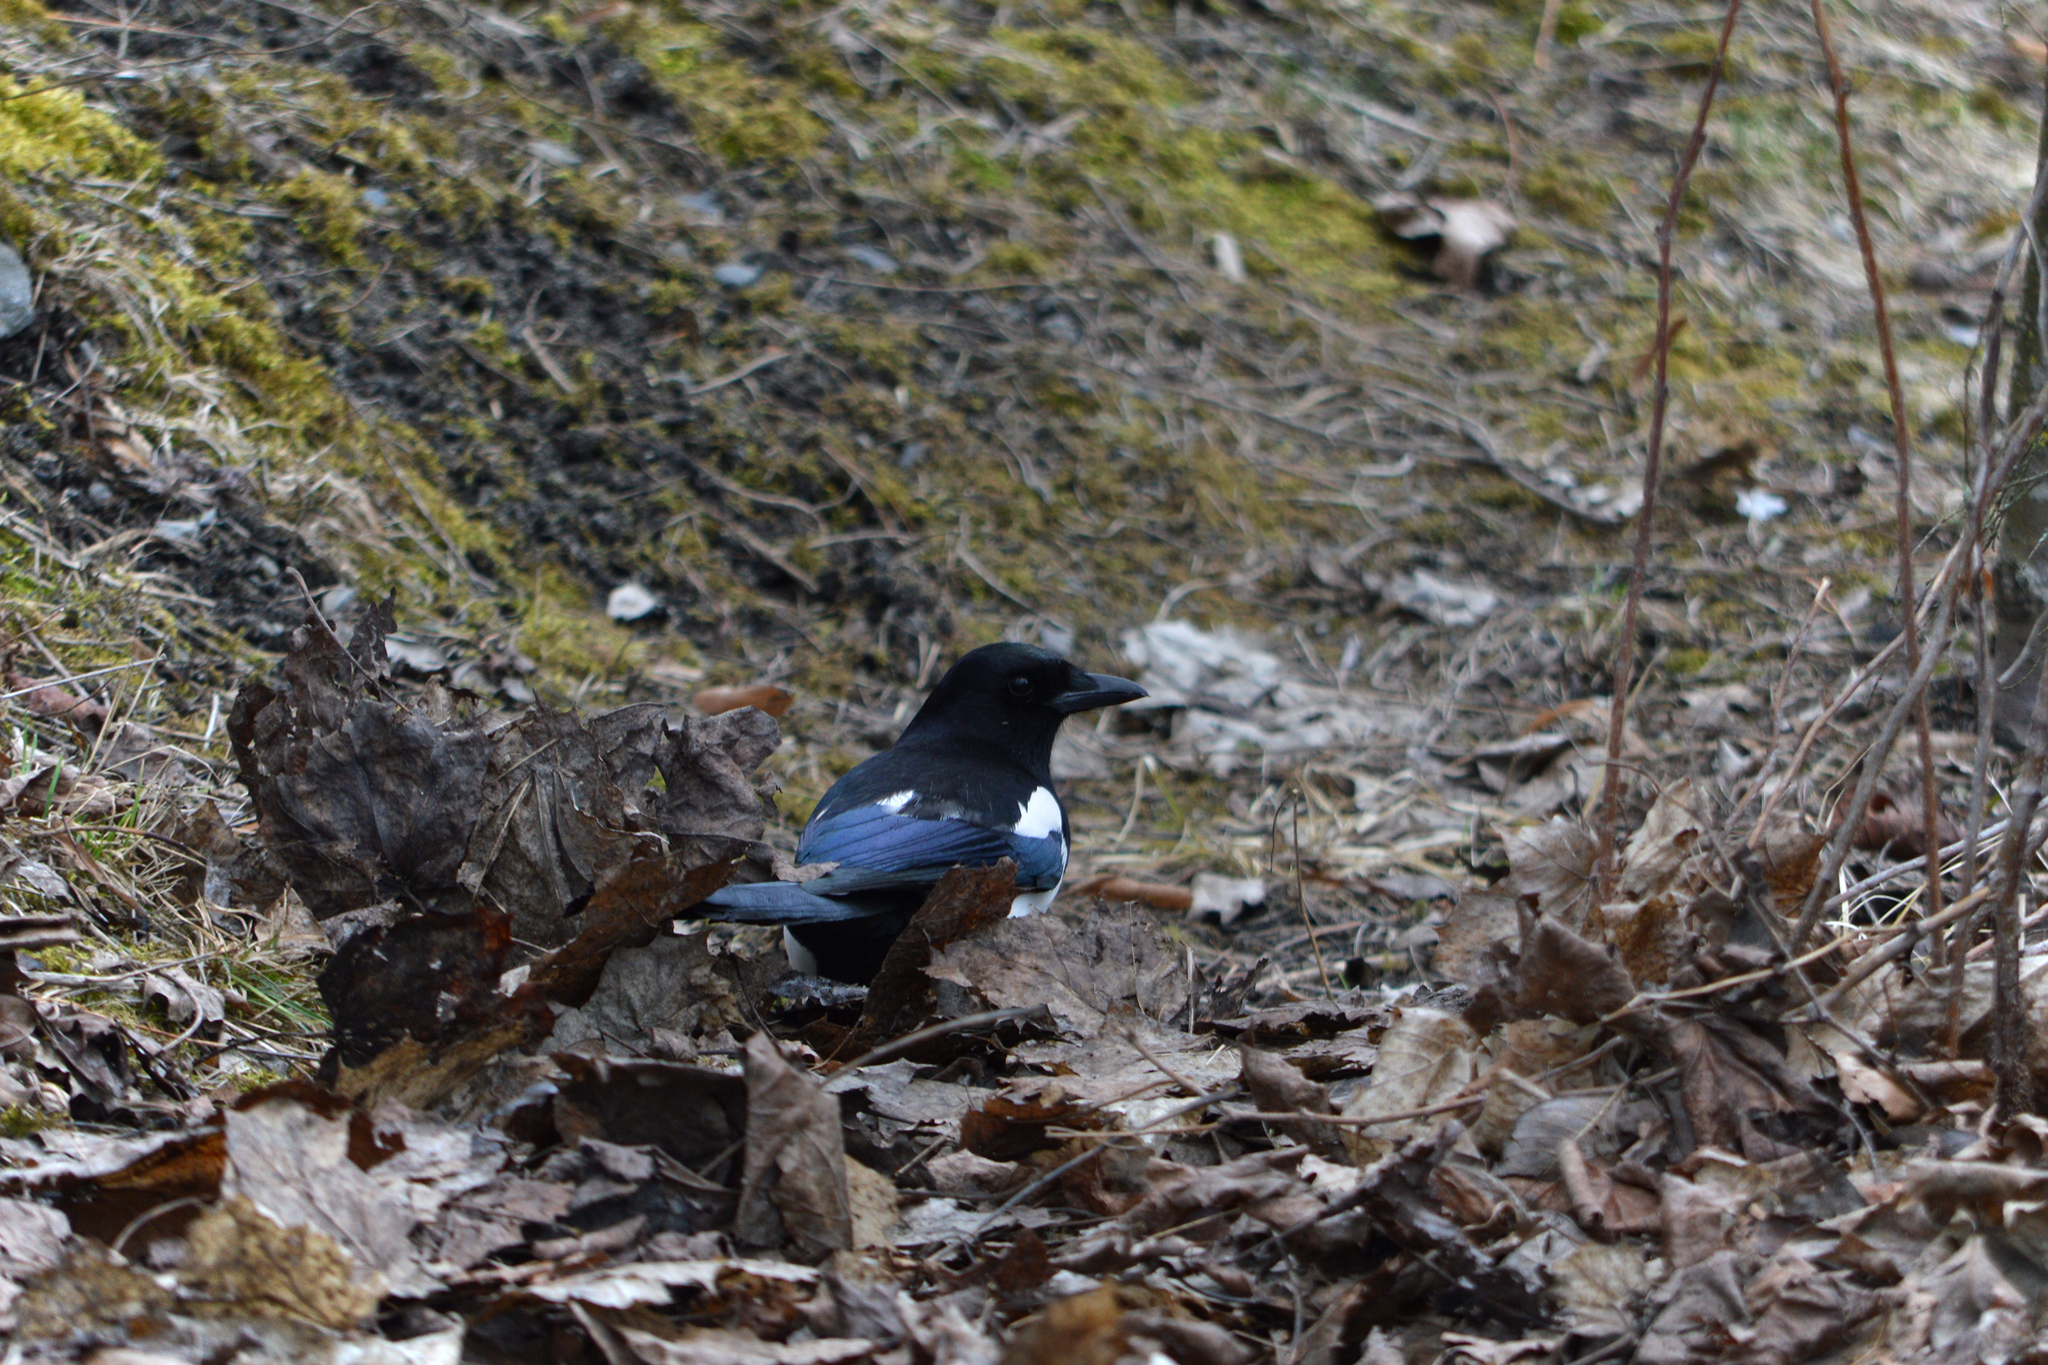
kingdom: Animalia
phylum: Chordata
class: Aves
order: Passeriformes
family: Corvidae
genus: Pica
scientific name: Pica pica
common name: Eurasian magpie
